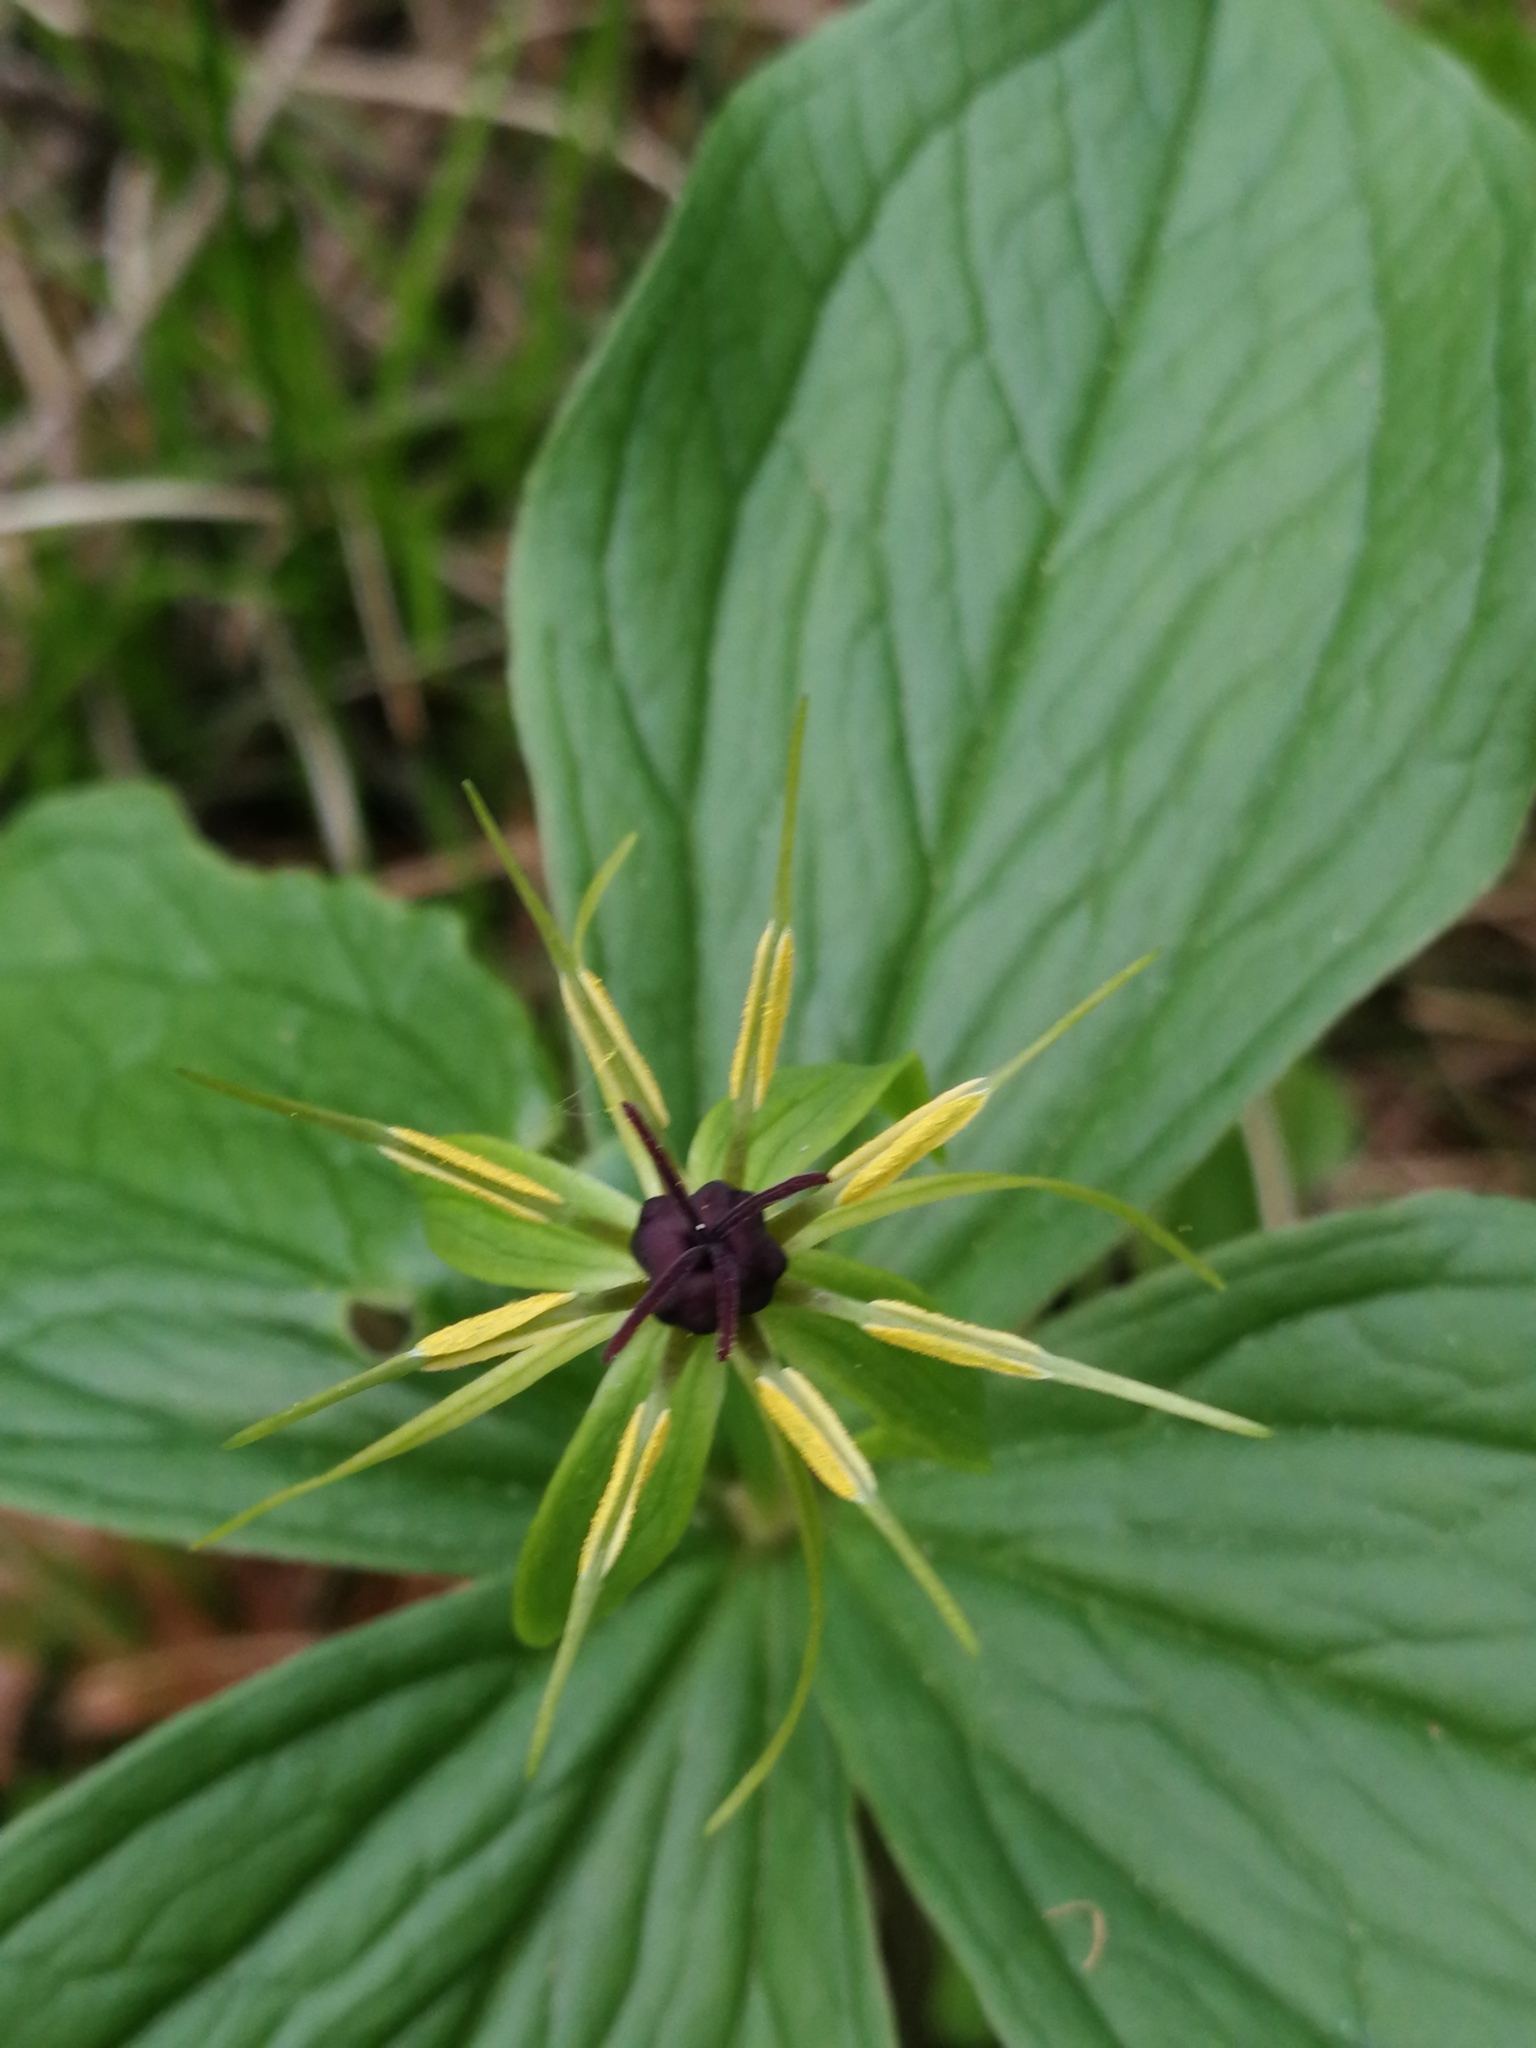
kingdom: Plantae
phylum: Tracheophyta
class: Liliopsida
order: Liliales
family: Melanthiaceae
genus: Paris
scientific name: Paris quadrifolia
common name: Herb-paris
